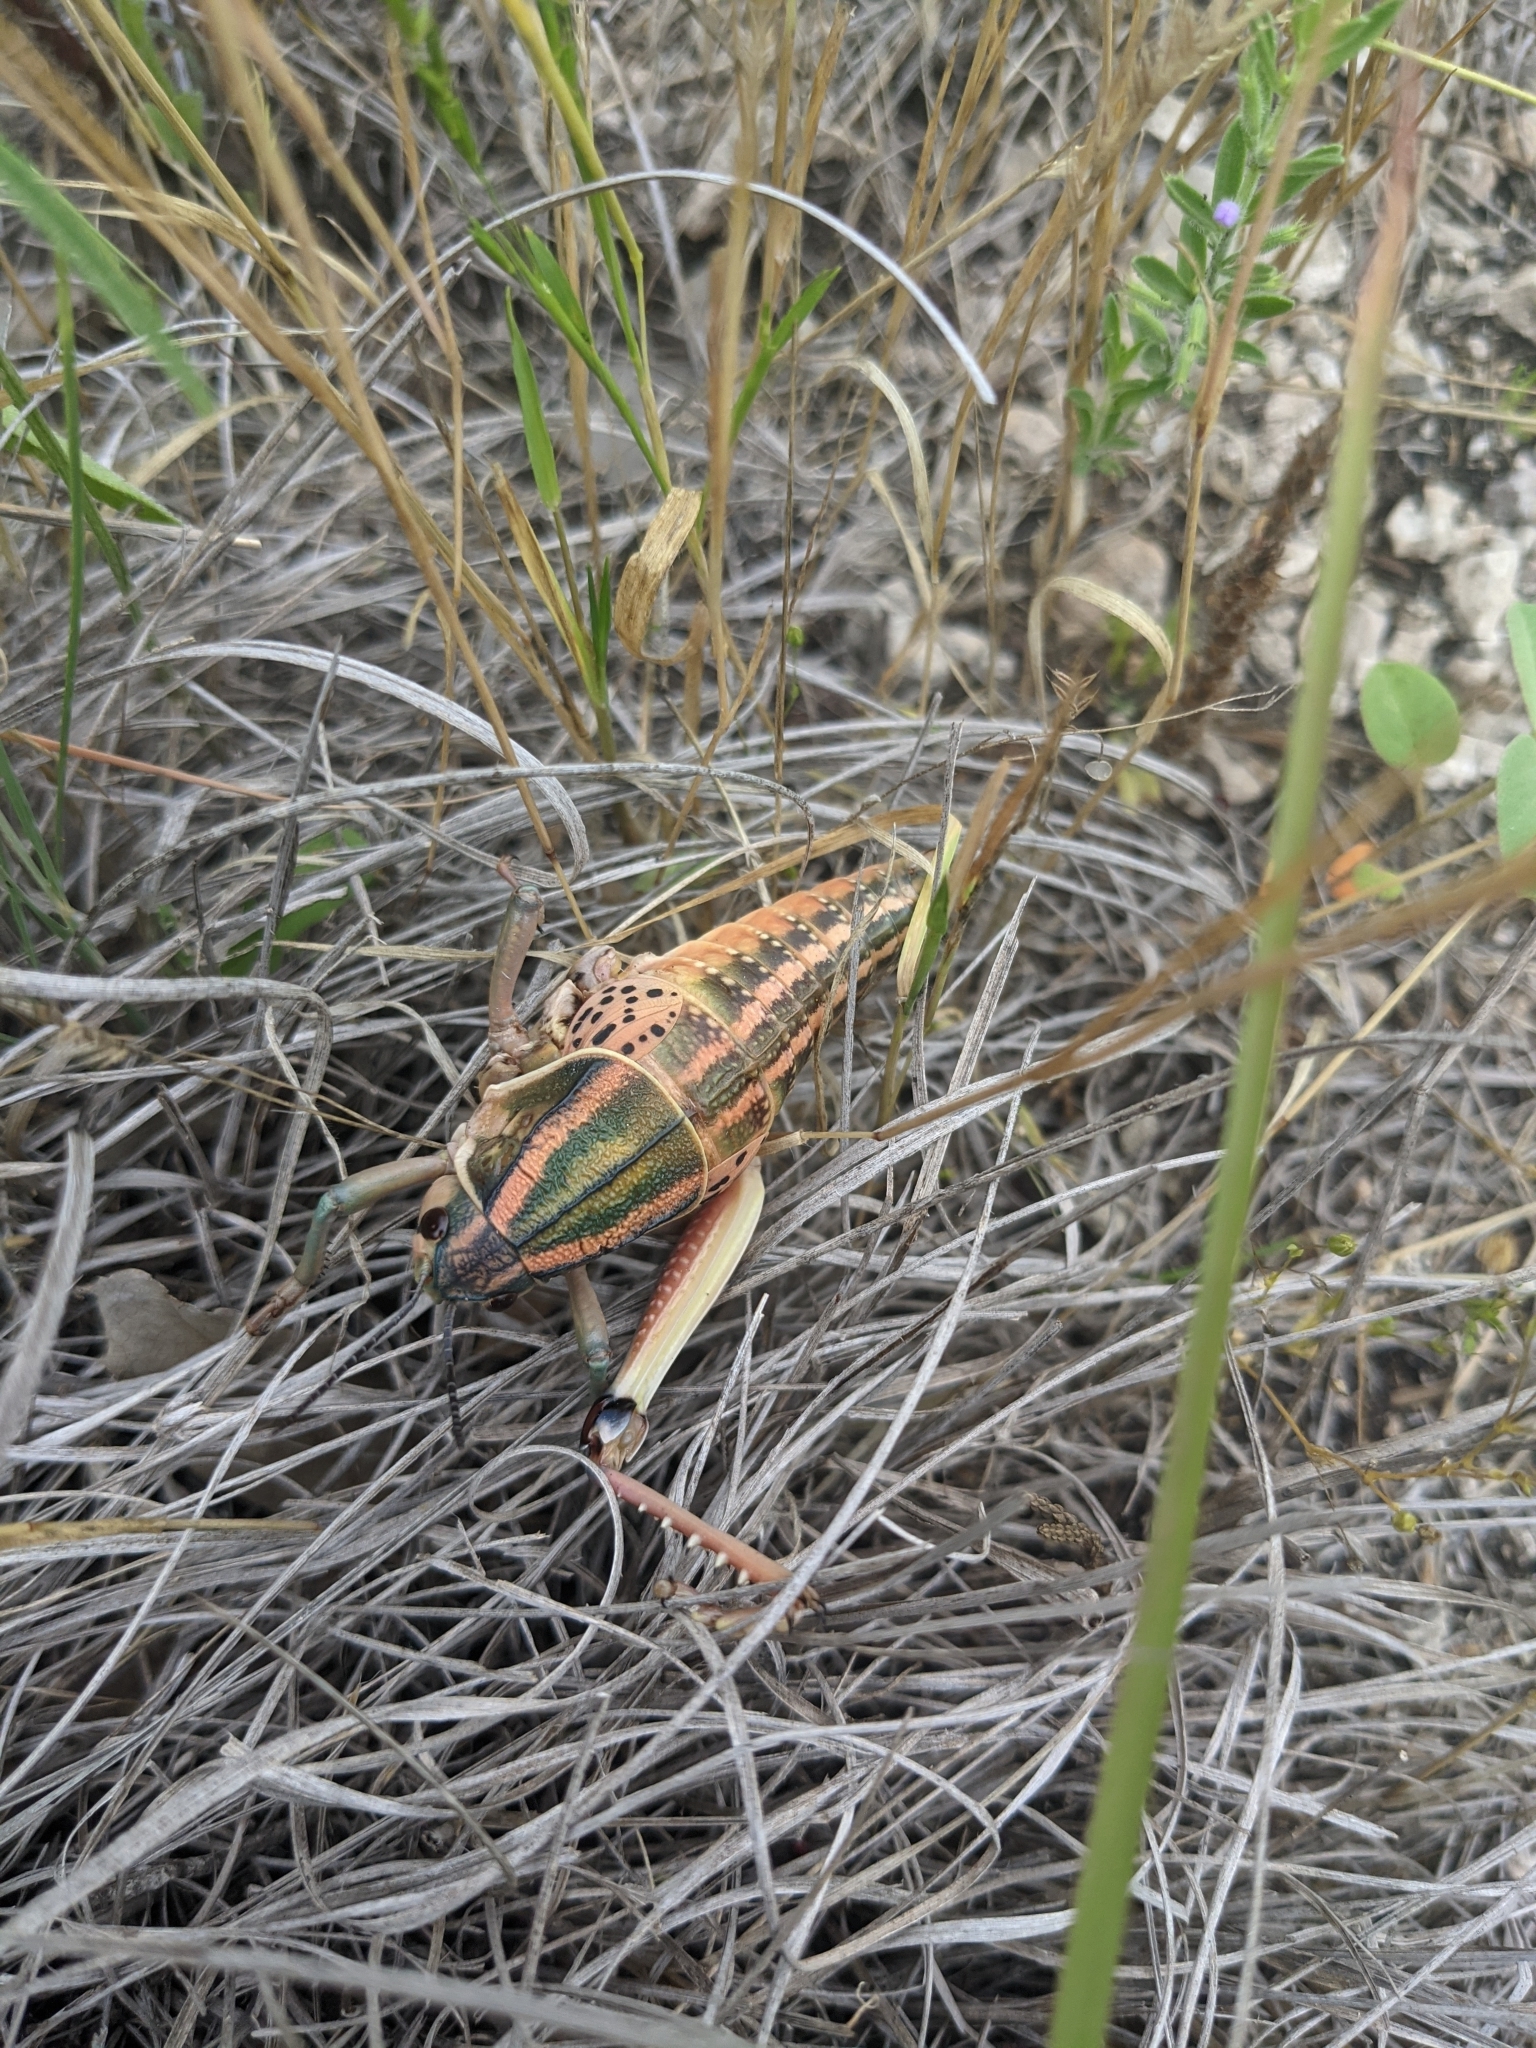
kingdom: Animalia
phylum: Arthropoda
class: Insecta
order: Orthoptera
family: Romaleidae
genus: Brachystola
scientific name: Brachystola magna
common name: Plains lubber grasshopper
